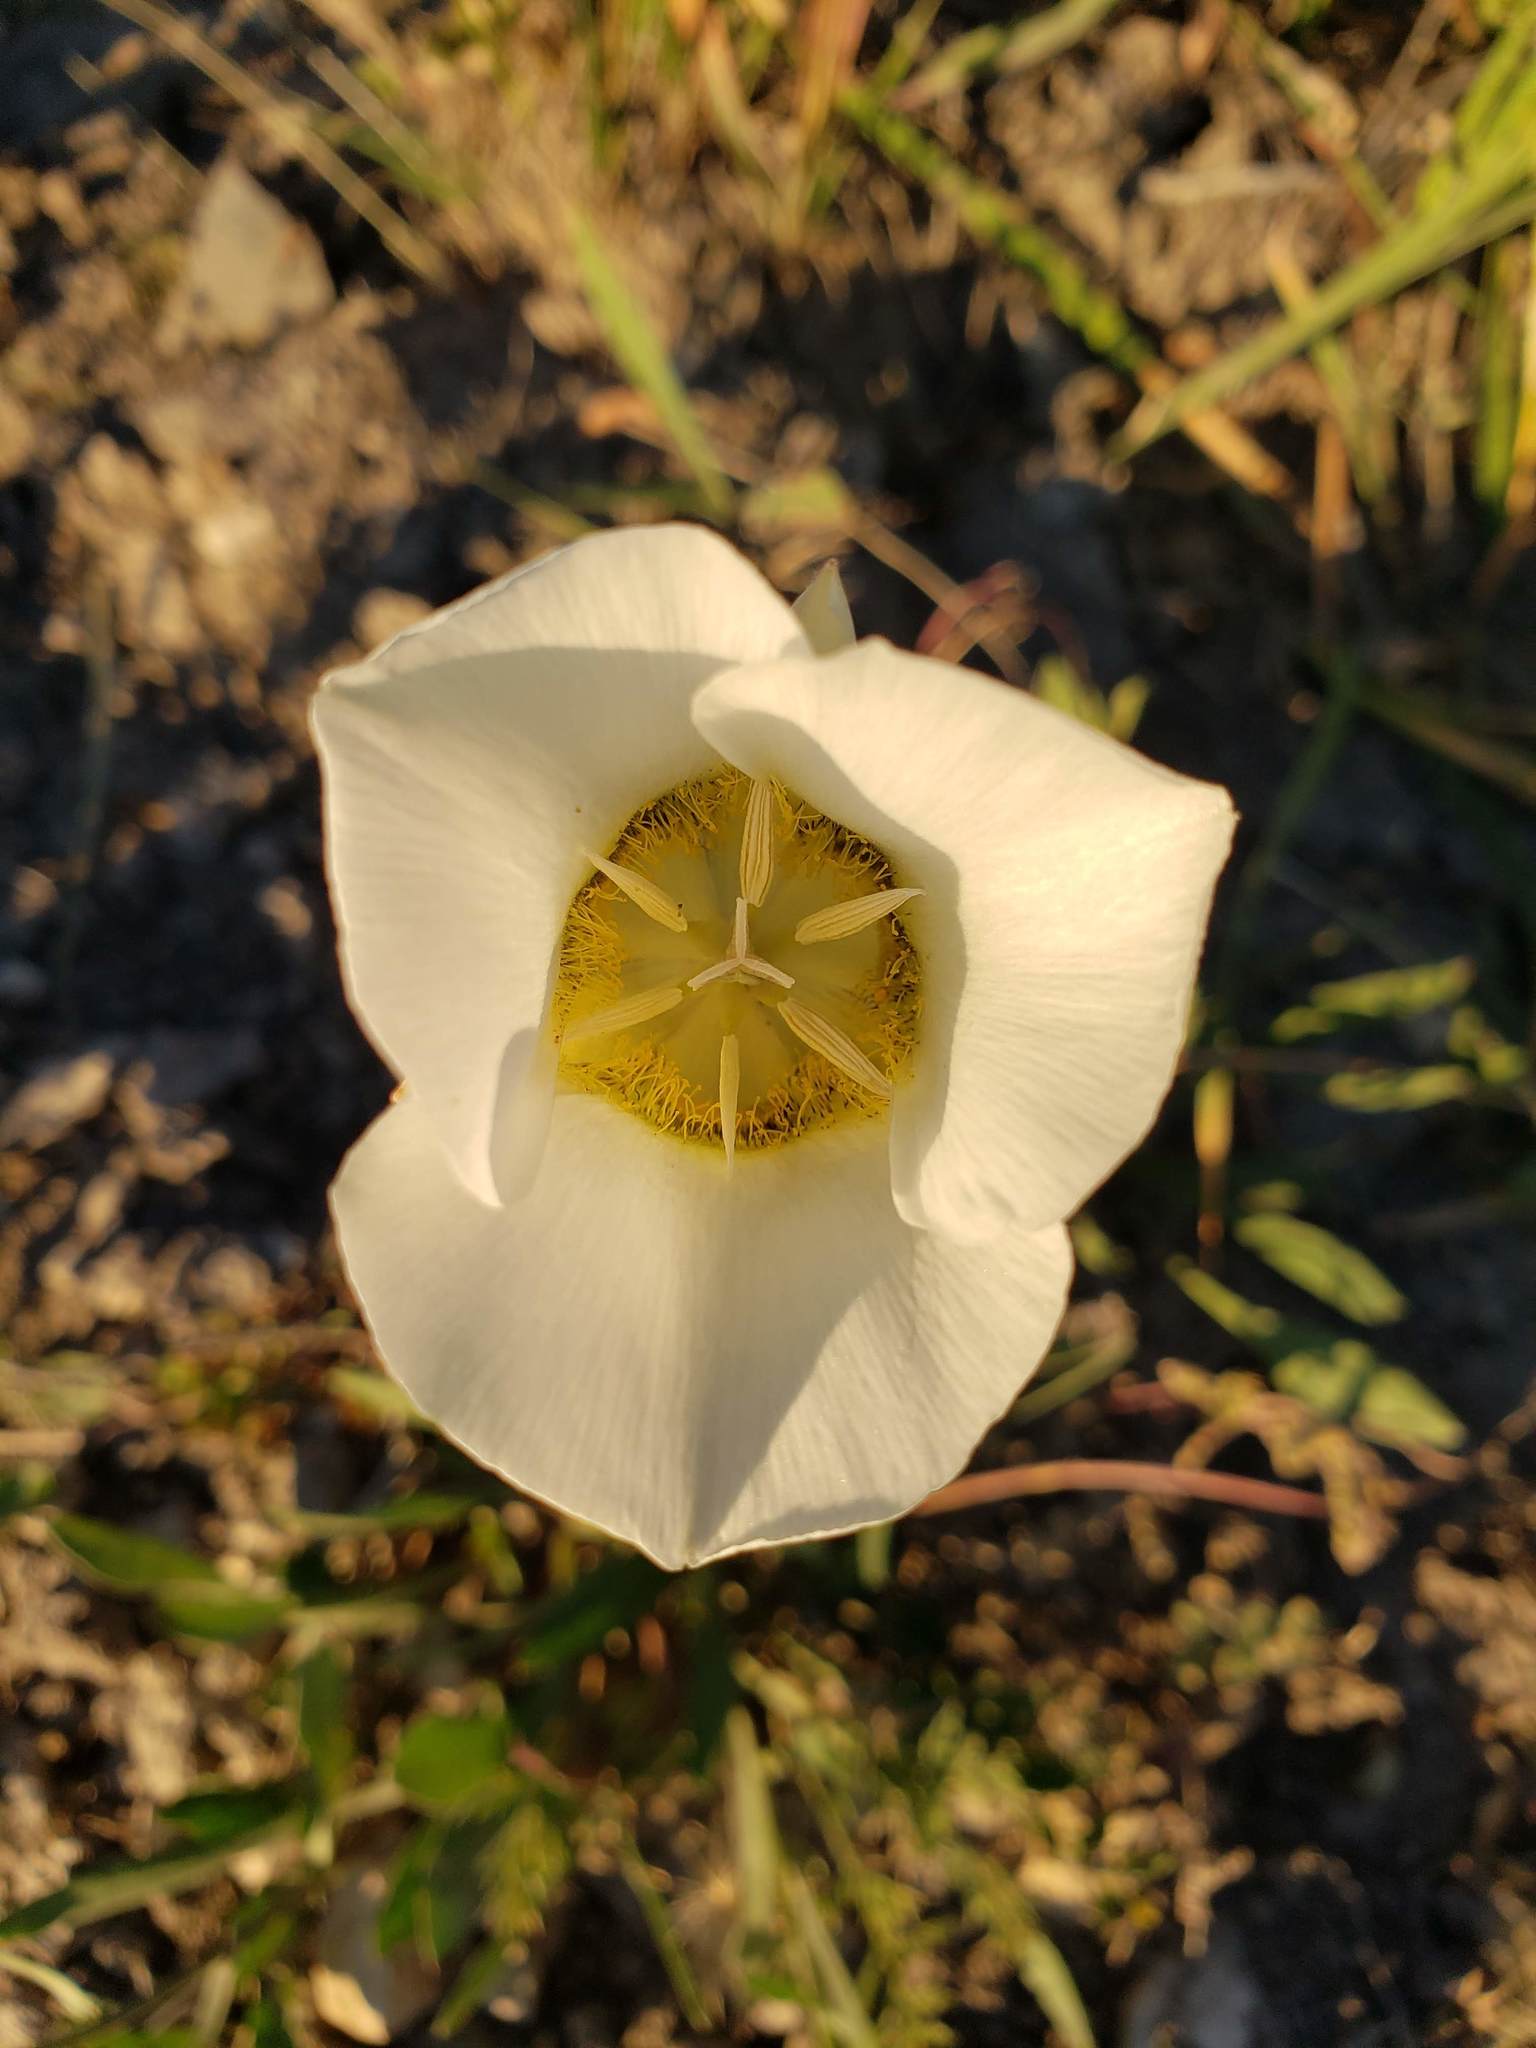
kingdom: Plantae
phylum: Tracheophyta
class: Liliopsida
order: Liliales
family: Liliaceae
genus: Calochortus
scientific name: Calochortus gunnisonii
